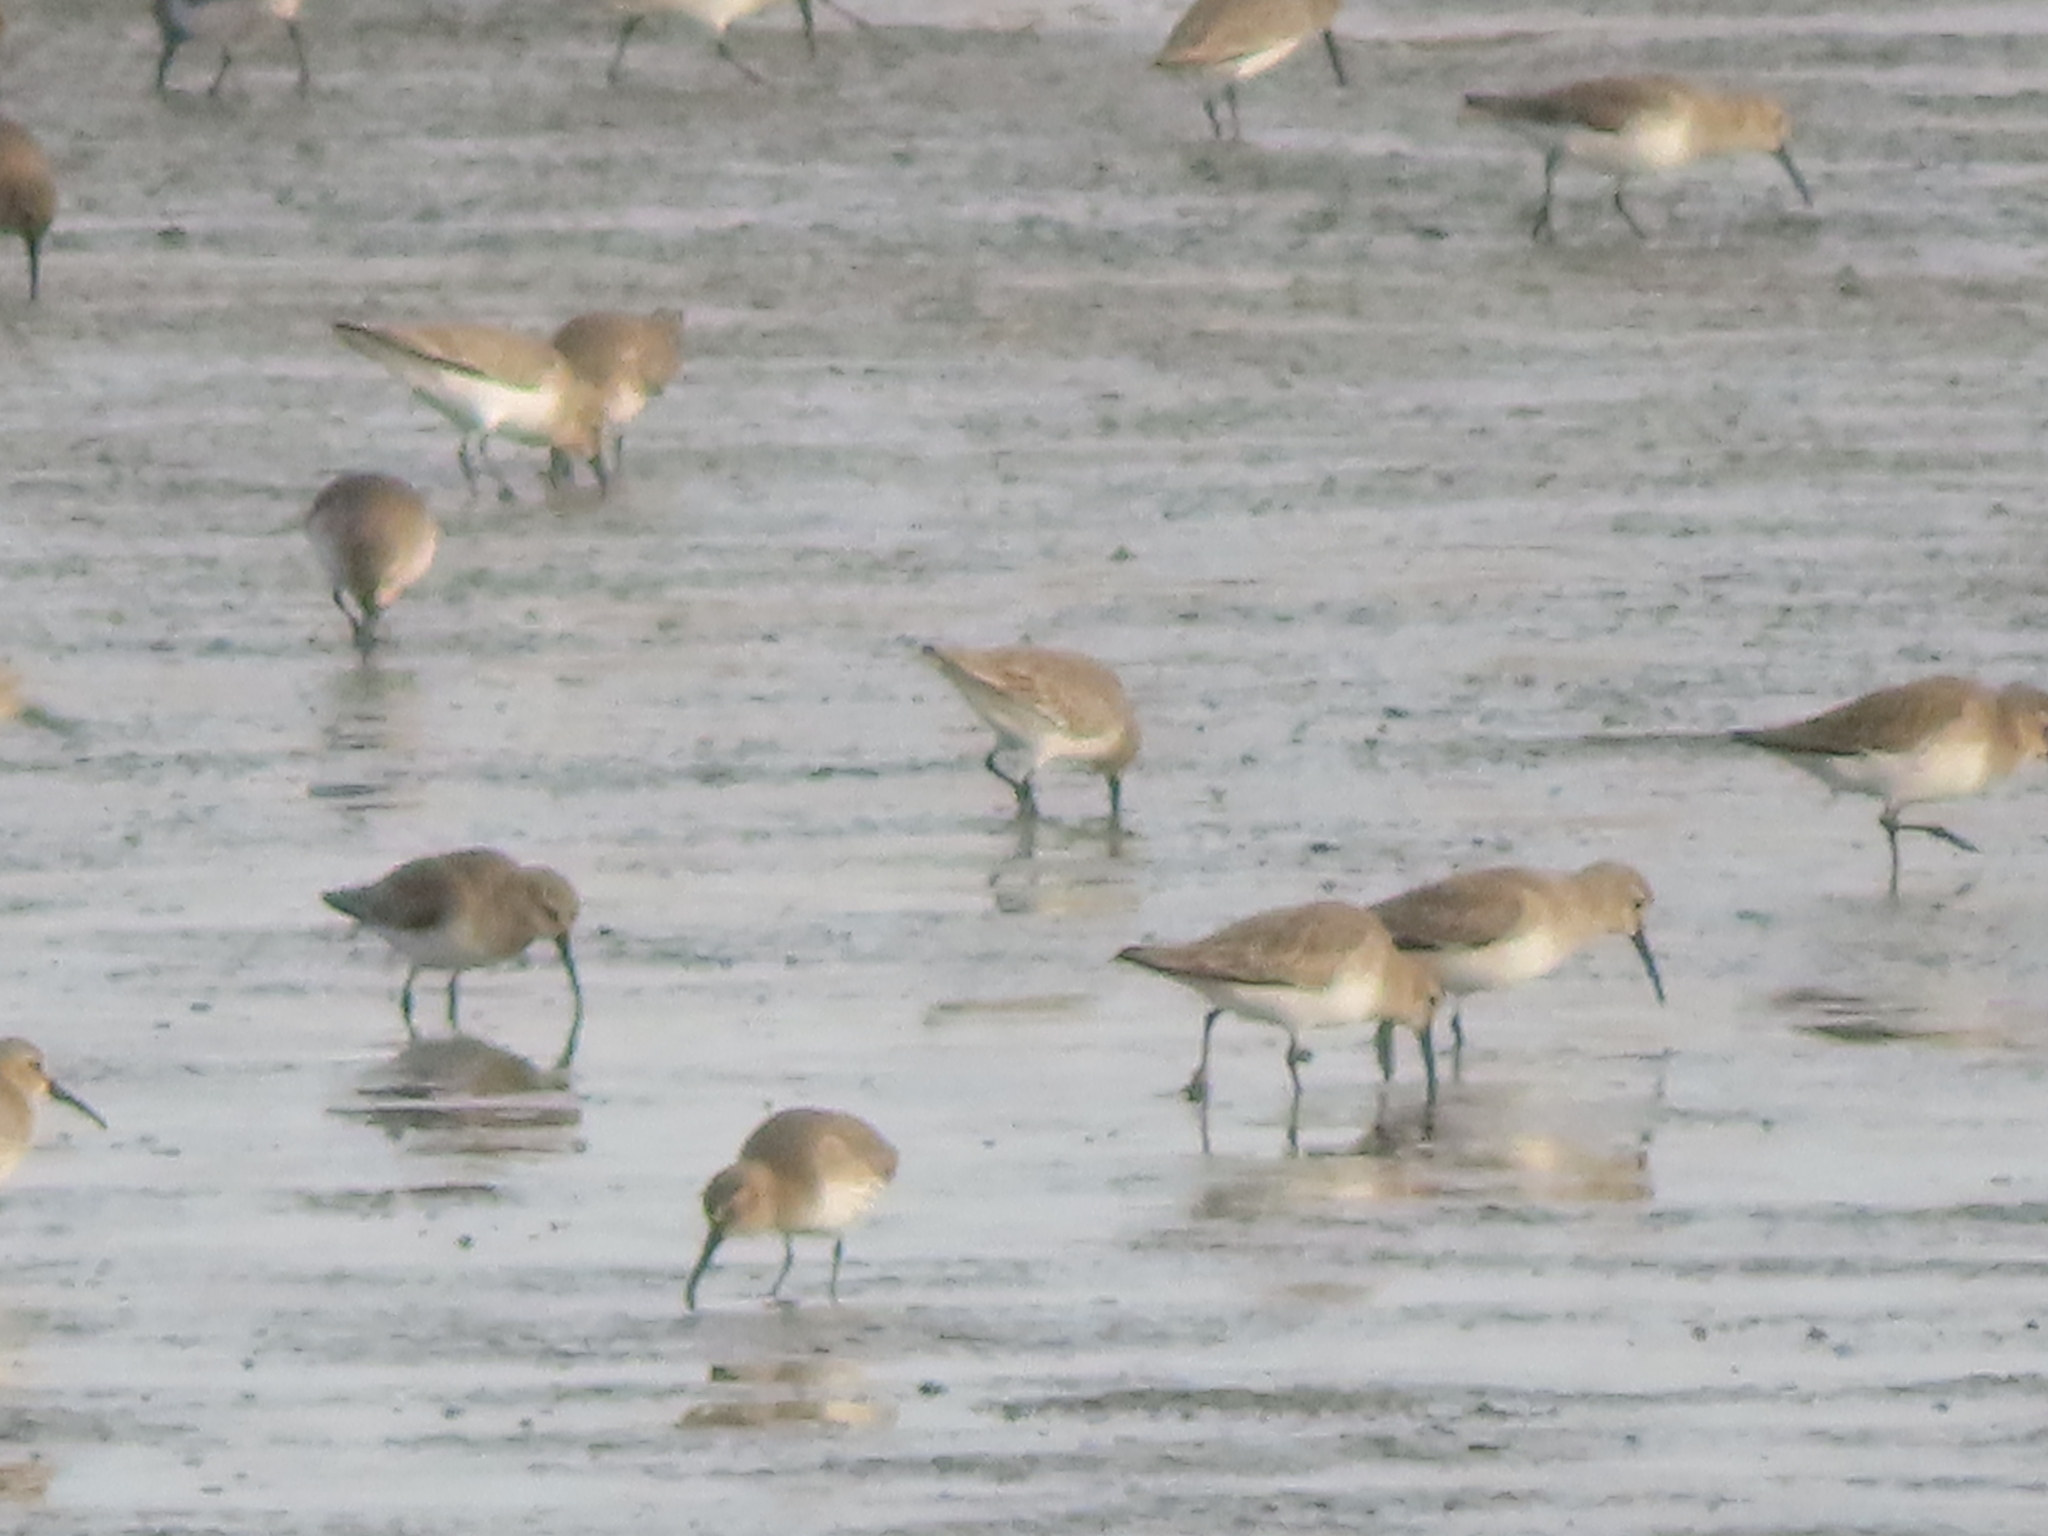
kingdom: Animalia
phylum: Chordata
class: Aves
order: Charadriiformes
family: Scolopacidae
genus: Calidris
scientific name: Calidris alpina
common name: Dunlin
